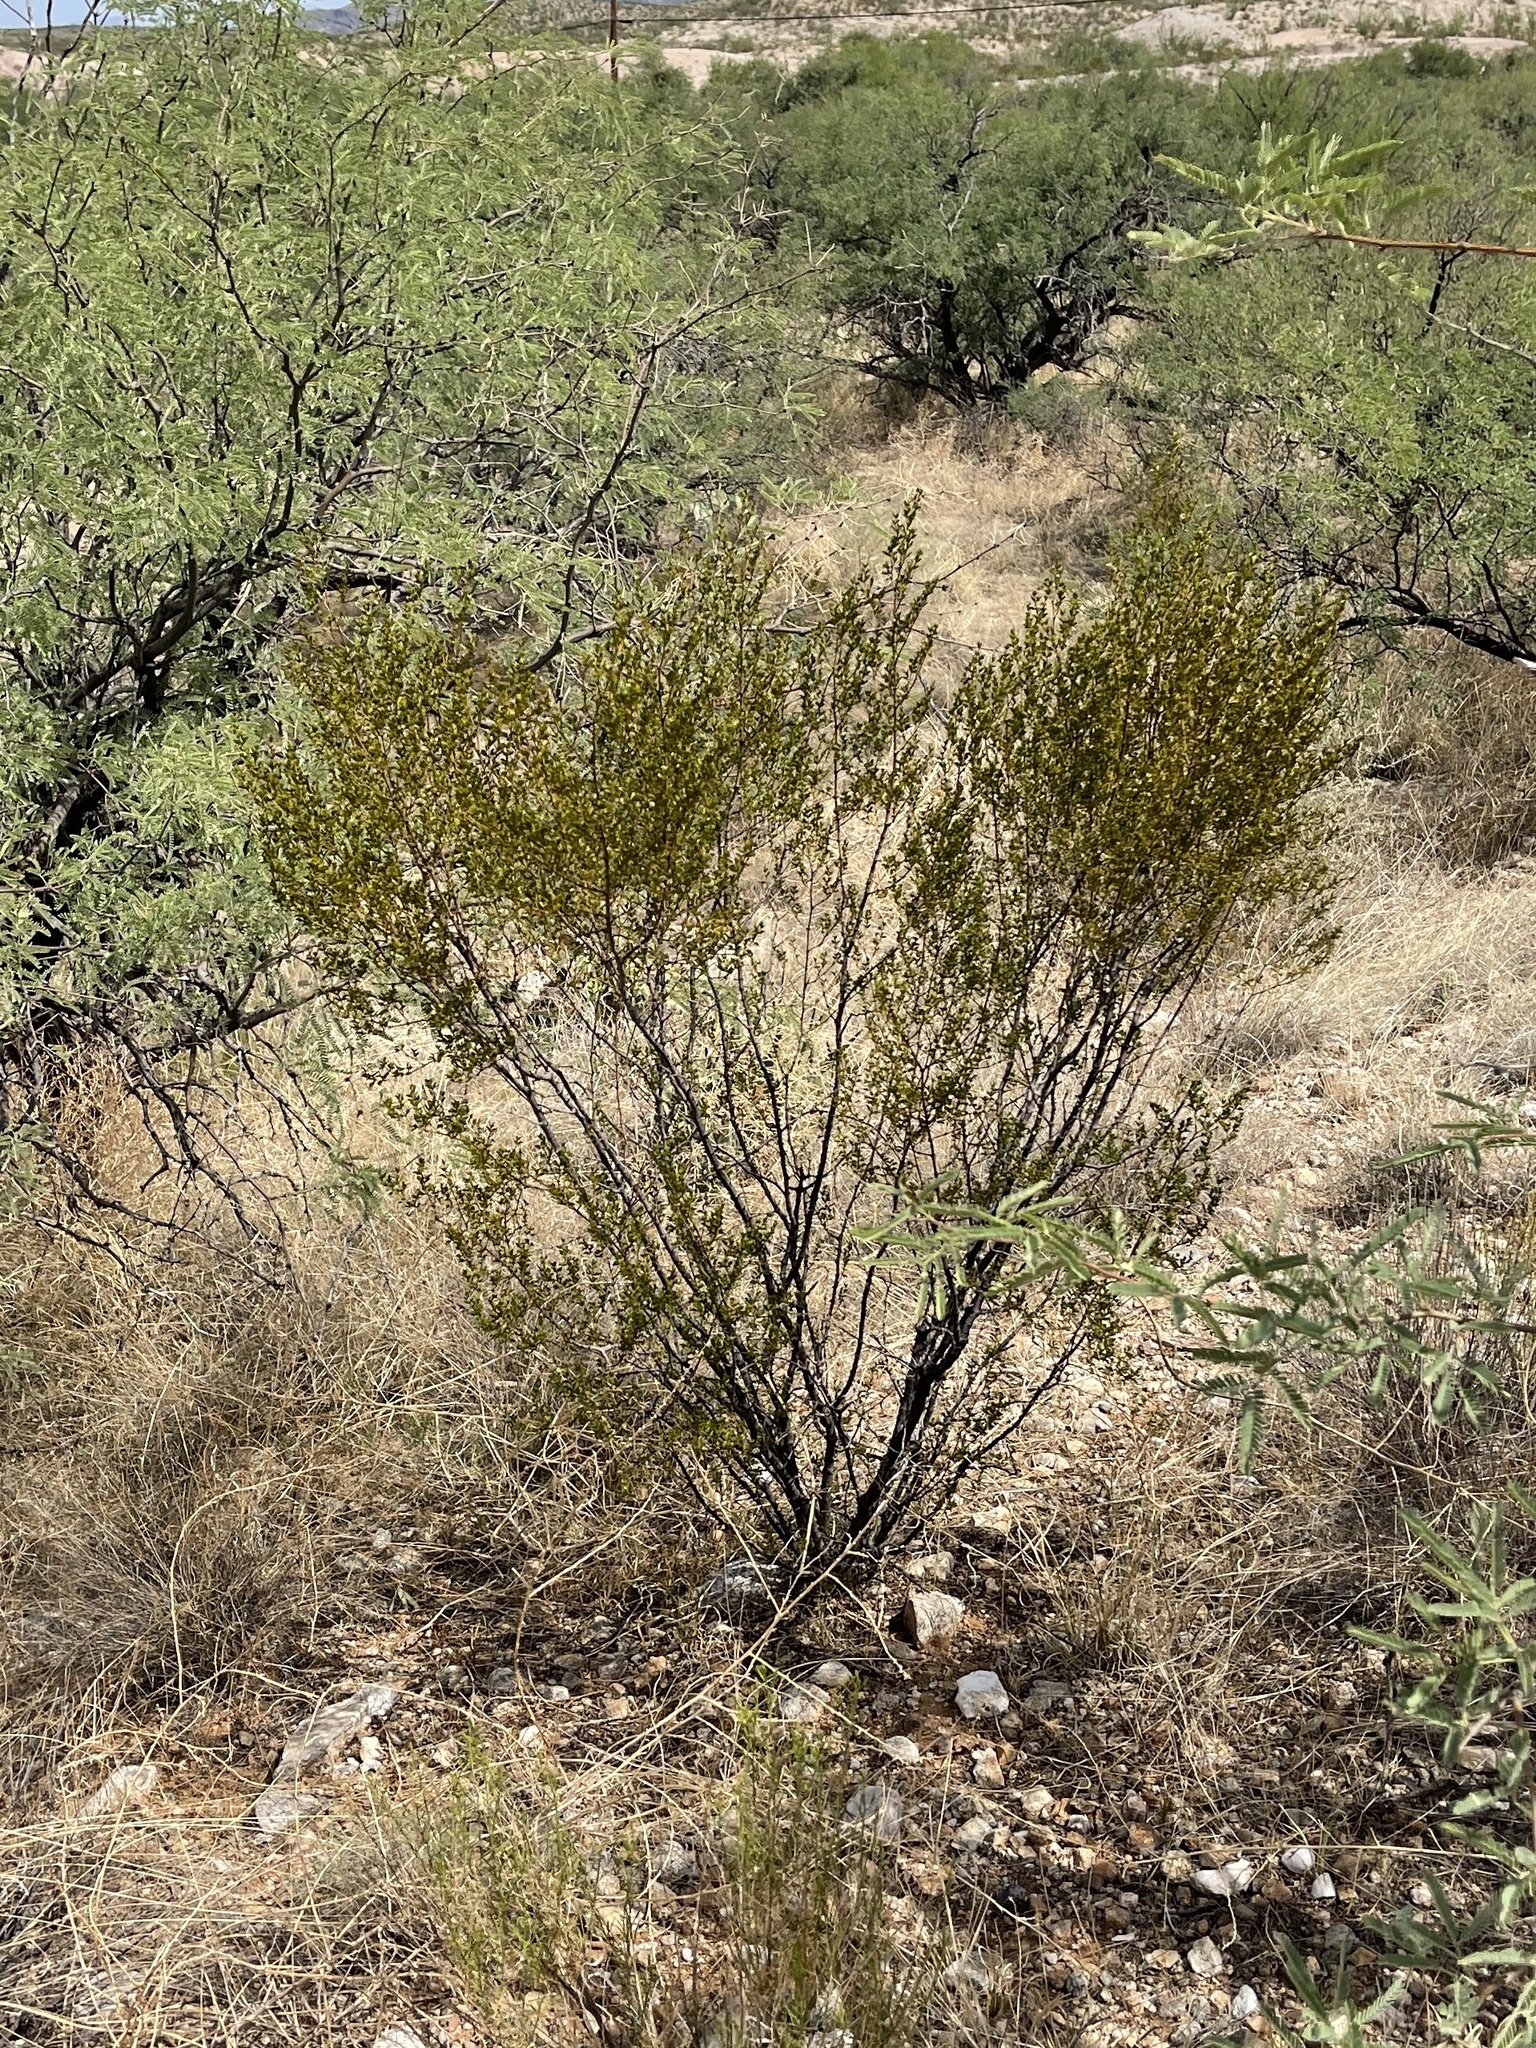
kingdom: Plantae
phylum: Tracheophyta
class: Magnoliopsida
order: Zygophyllales
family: Zygophyllaceae
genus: Larrea
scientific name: Larrea tridentata
